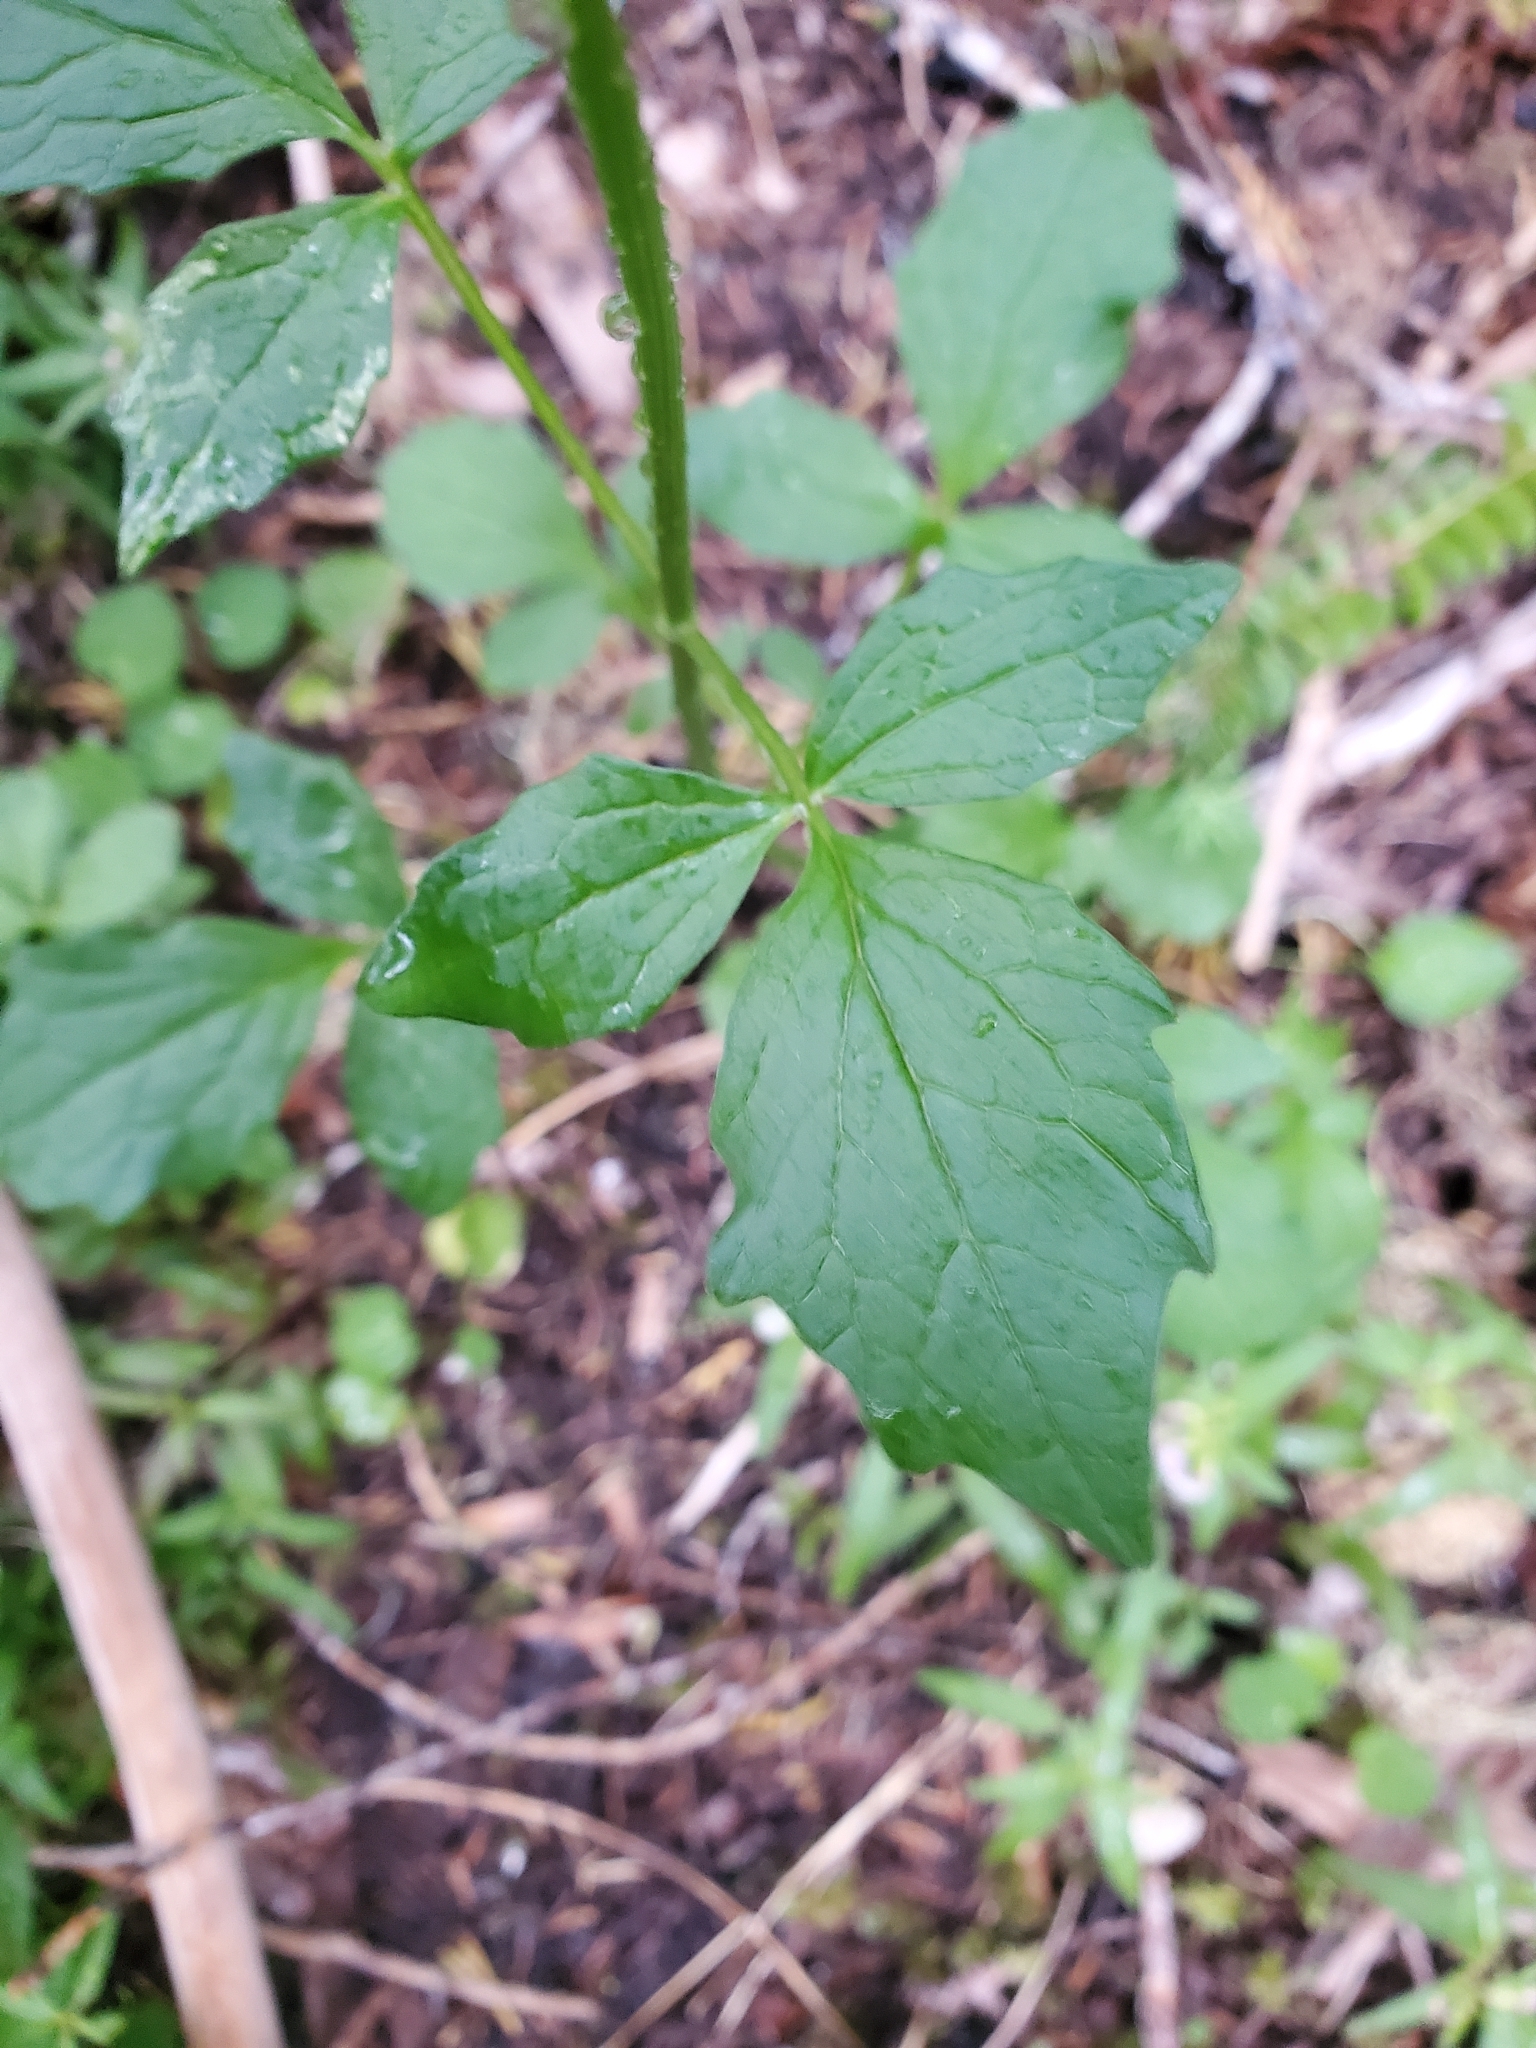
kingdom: Plantae
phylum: Tracheophyta
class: Magnoliopsida
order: Dipsacales
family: Caprifoliaceae
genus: Valeriana
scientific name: Valeriana sitchensis
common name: Pacific valerian
